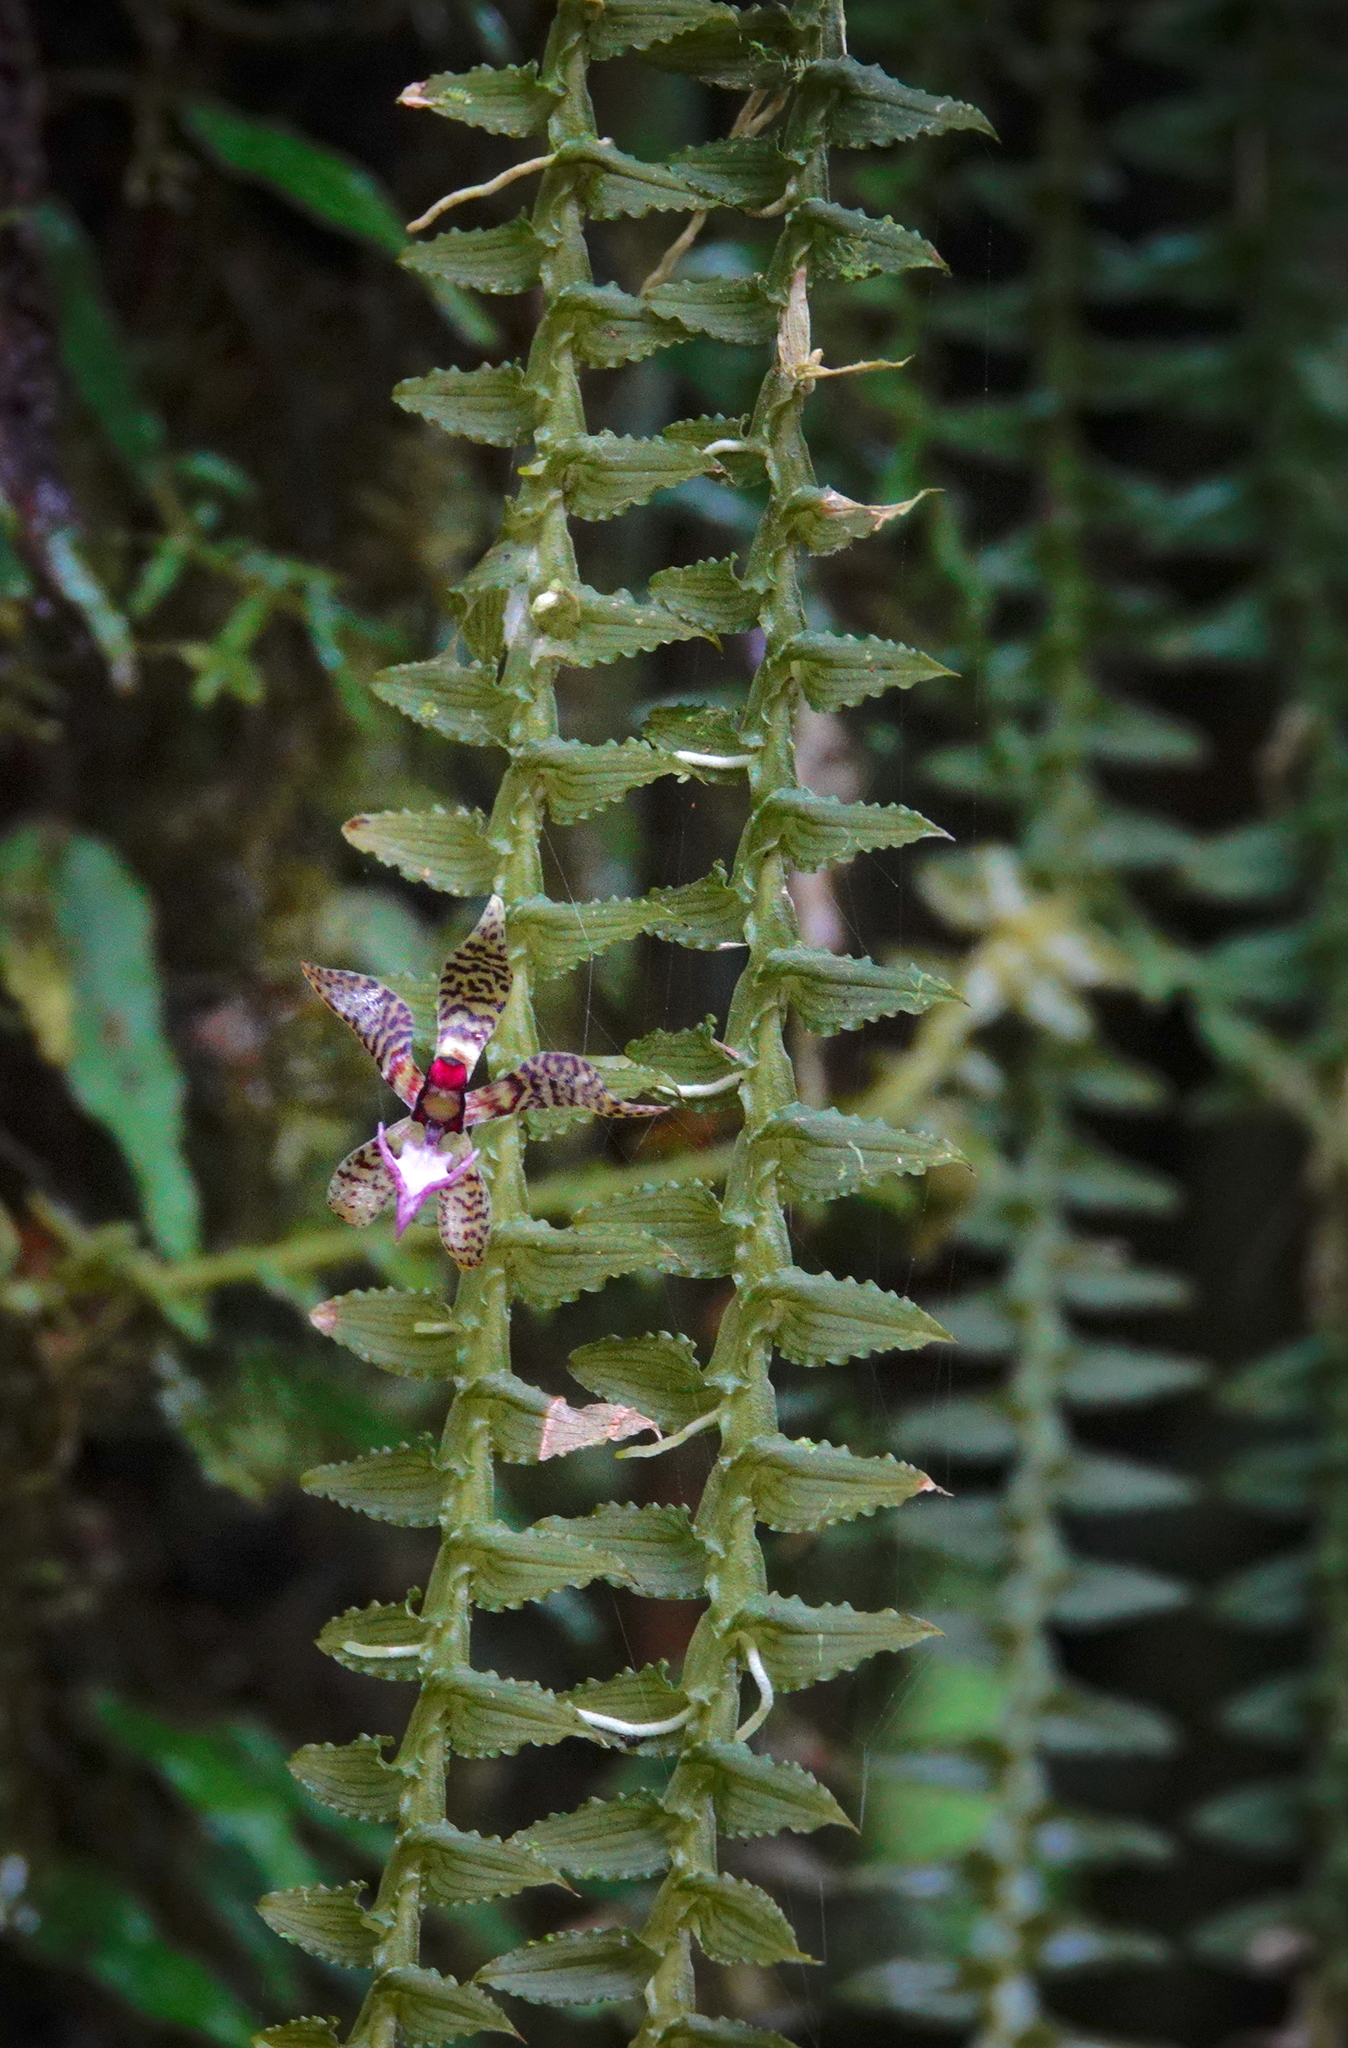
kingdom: Plantae
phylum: Tracheophyta
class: Liliopsida
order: Asparagales
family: Orchidaceae
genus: Dichaea
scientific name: Dichaea hystricina
